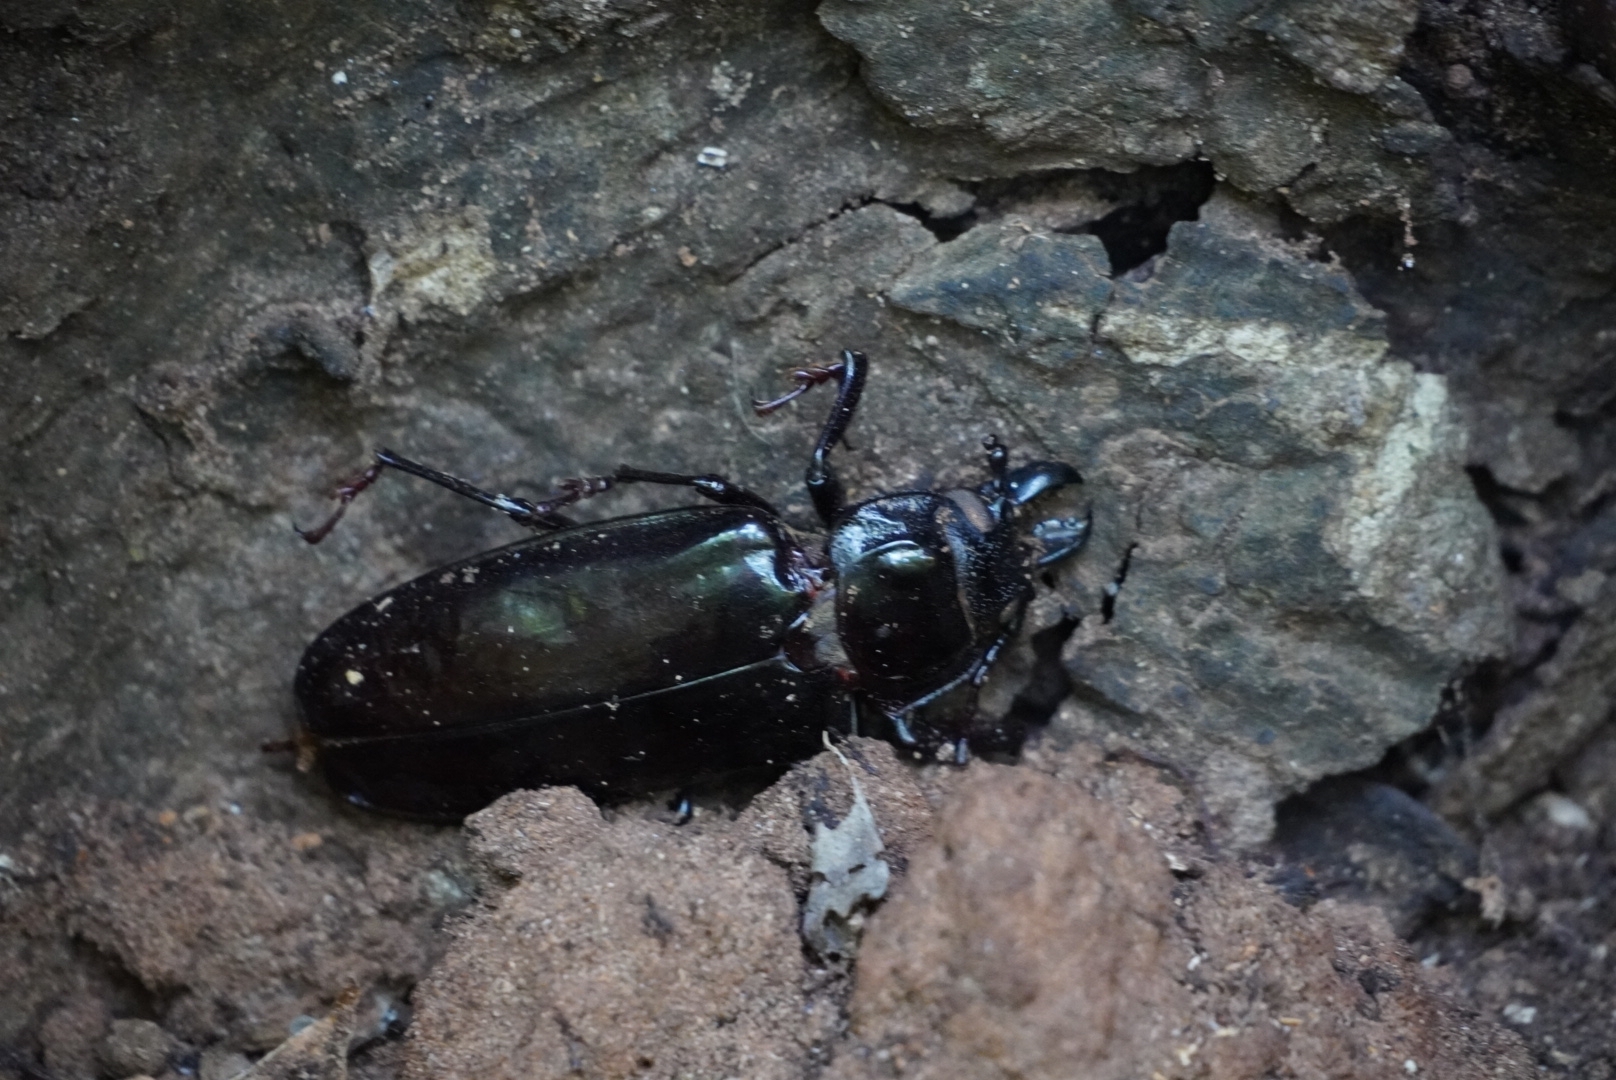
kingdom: Animalia
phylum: Arthropoda
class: Insecta
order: Coleoptera
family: Cerambycidae
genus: Mallodon
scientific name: Mallodon downesii
